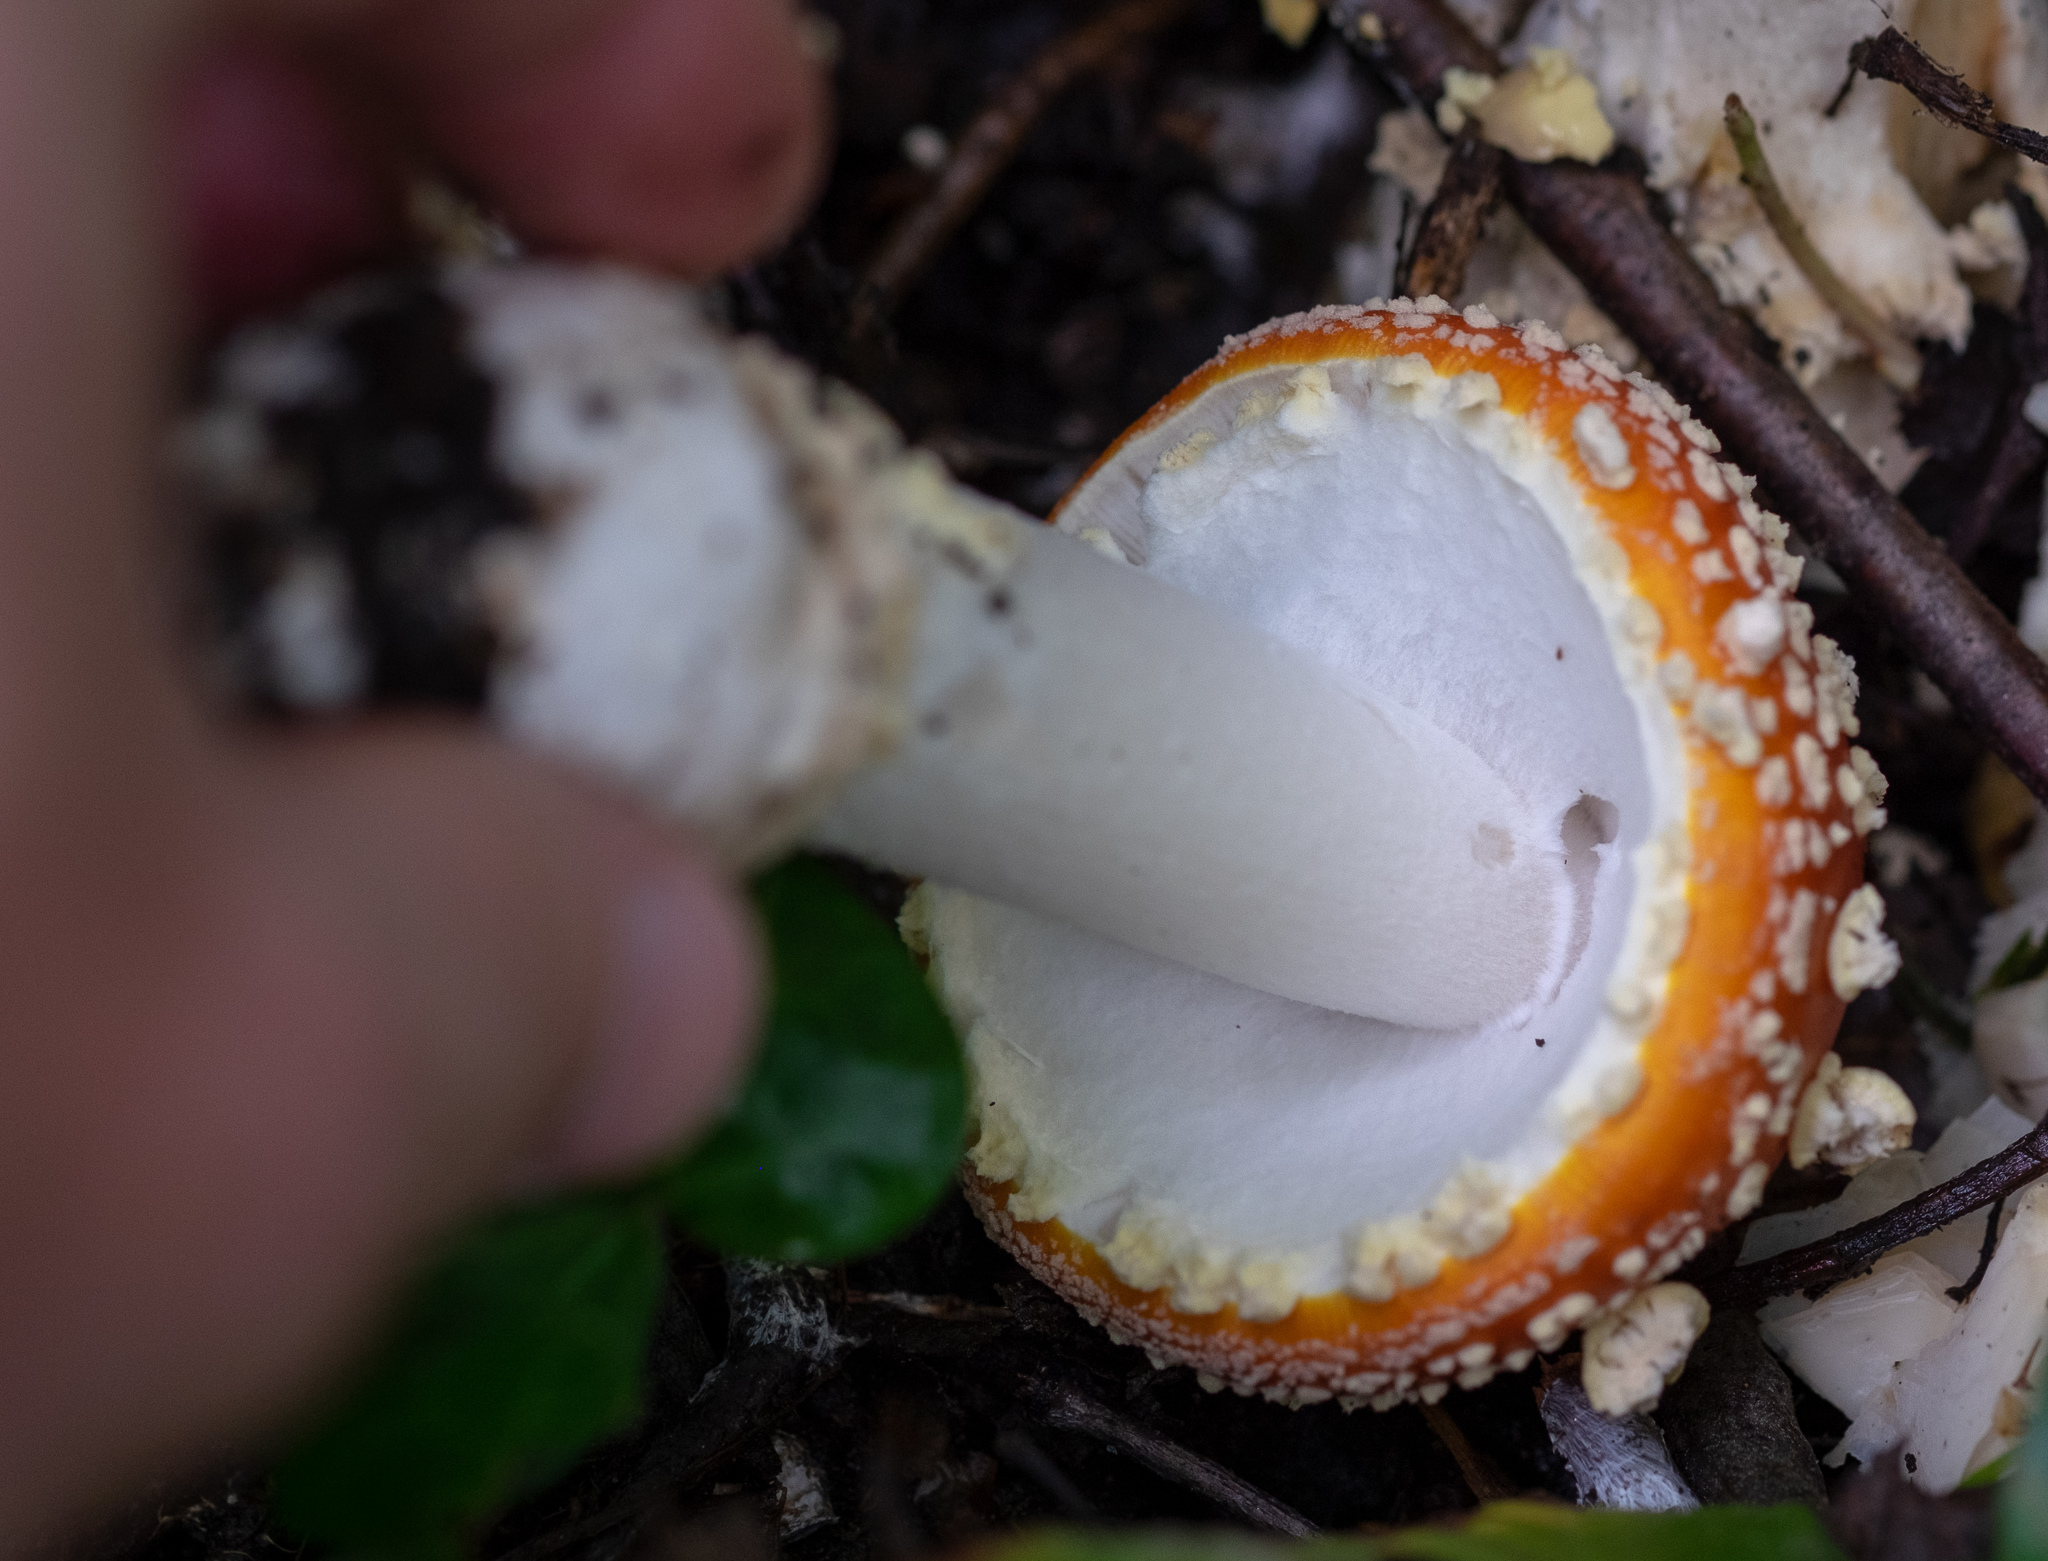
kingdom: Fungi
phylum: Basidiomycota
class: Agaricomycetes
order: Agaricales
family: Amanitaceae
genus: Amanita
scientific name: Amanita muscaria
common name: Fly agaric
